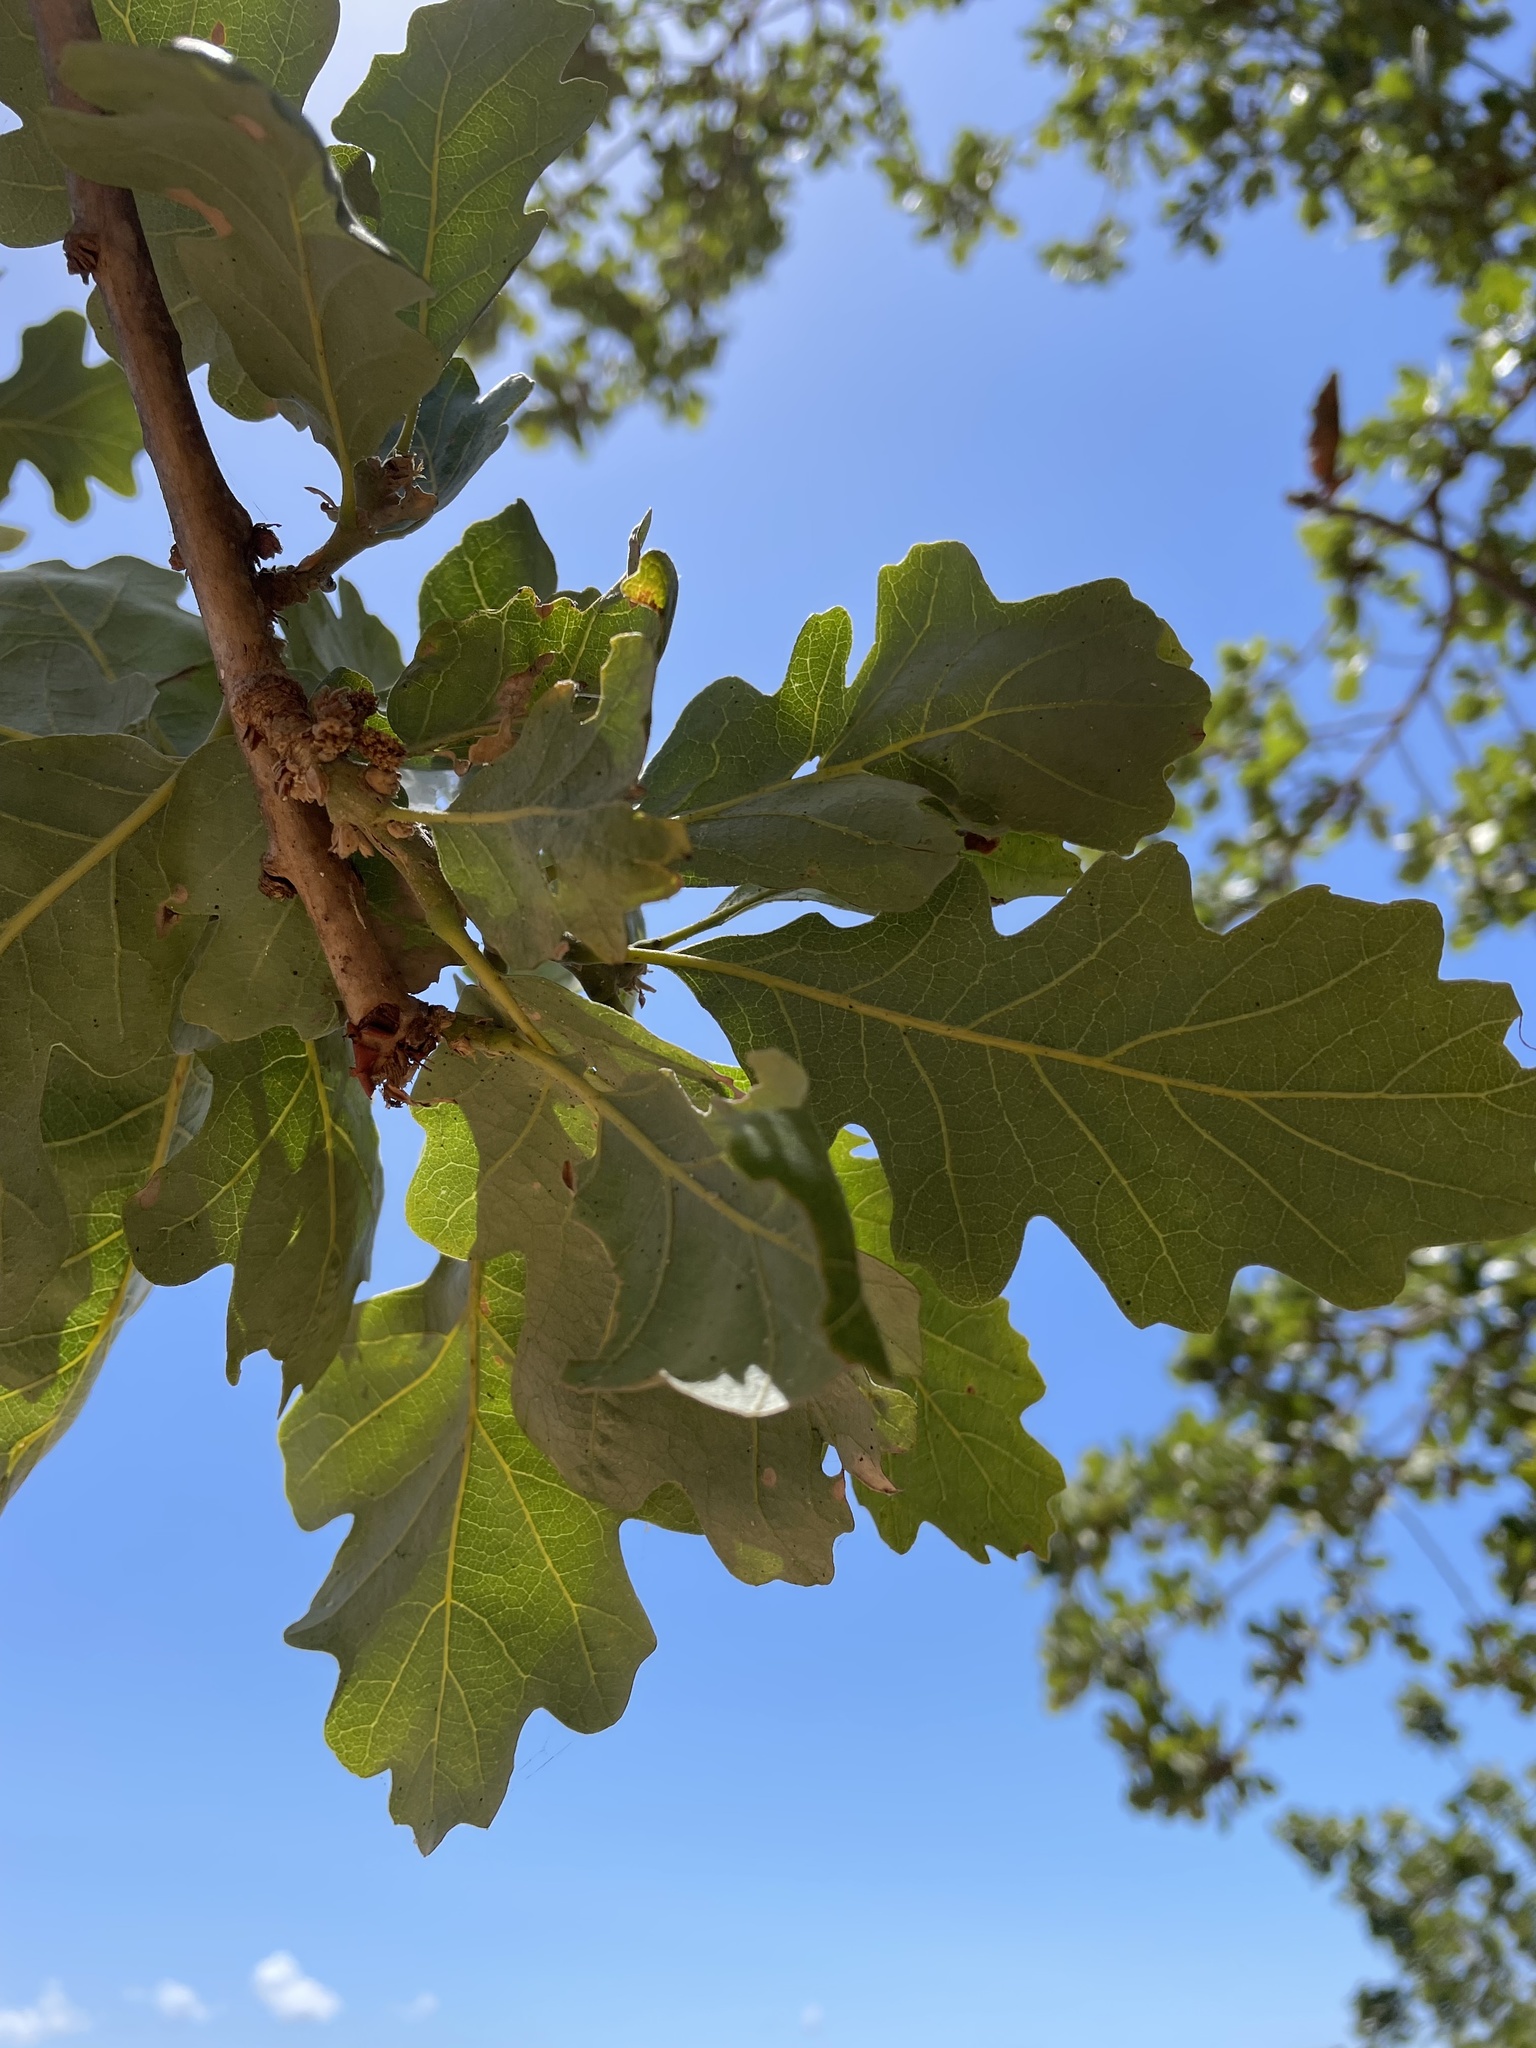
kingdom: Plantae
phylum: Tracheophyta
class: Magnoliopsida
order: Fagales
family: Fagaceae
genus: Quercus
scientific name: Quercus lobata
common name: Valley oak
